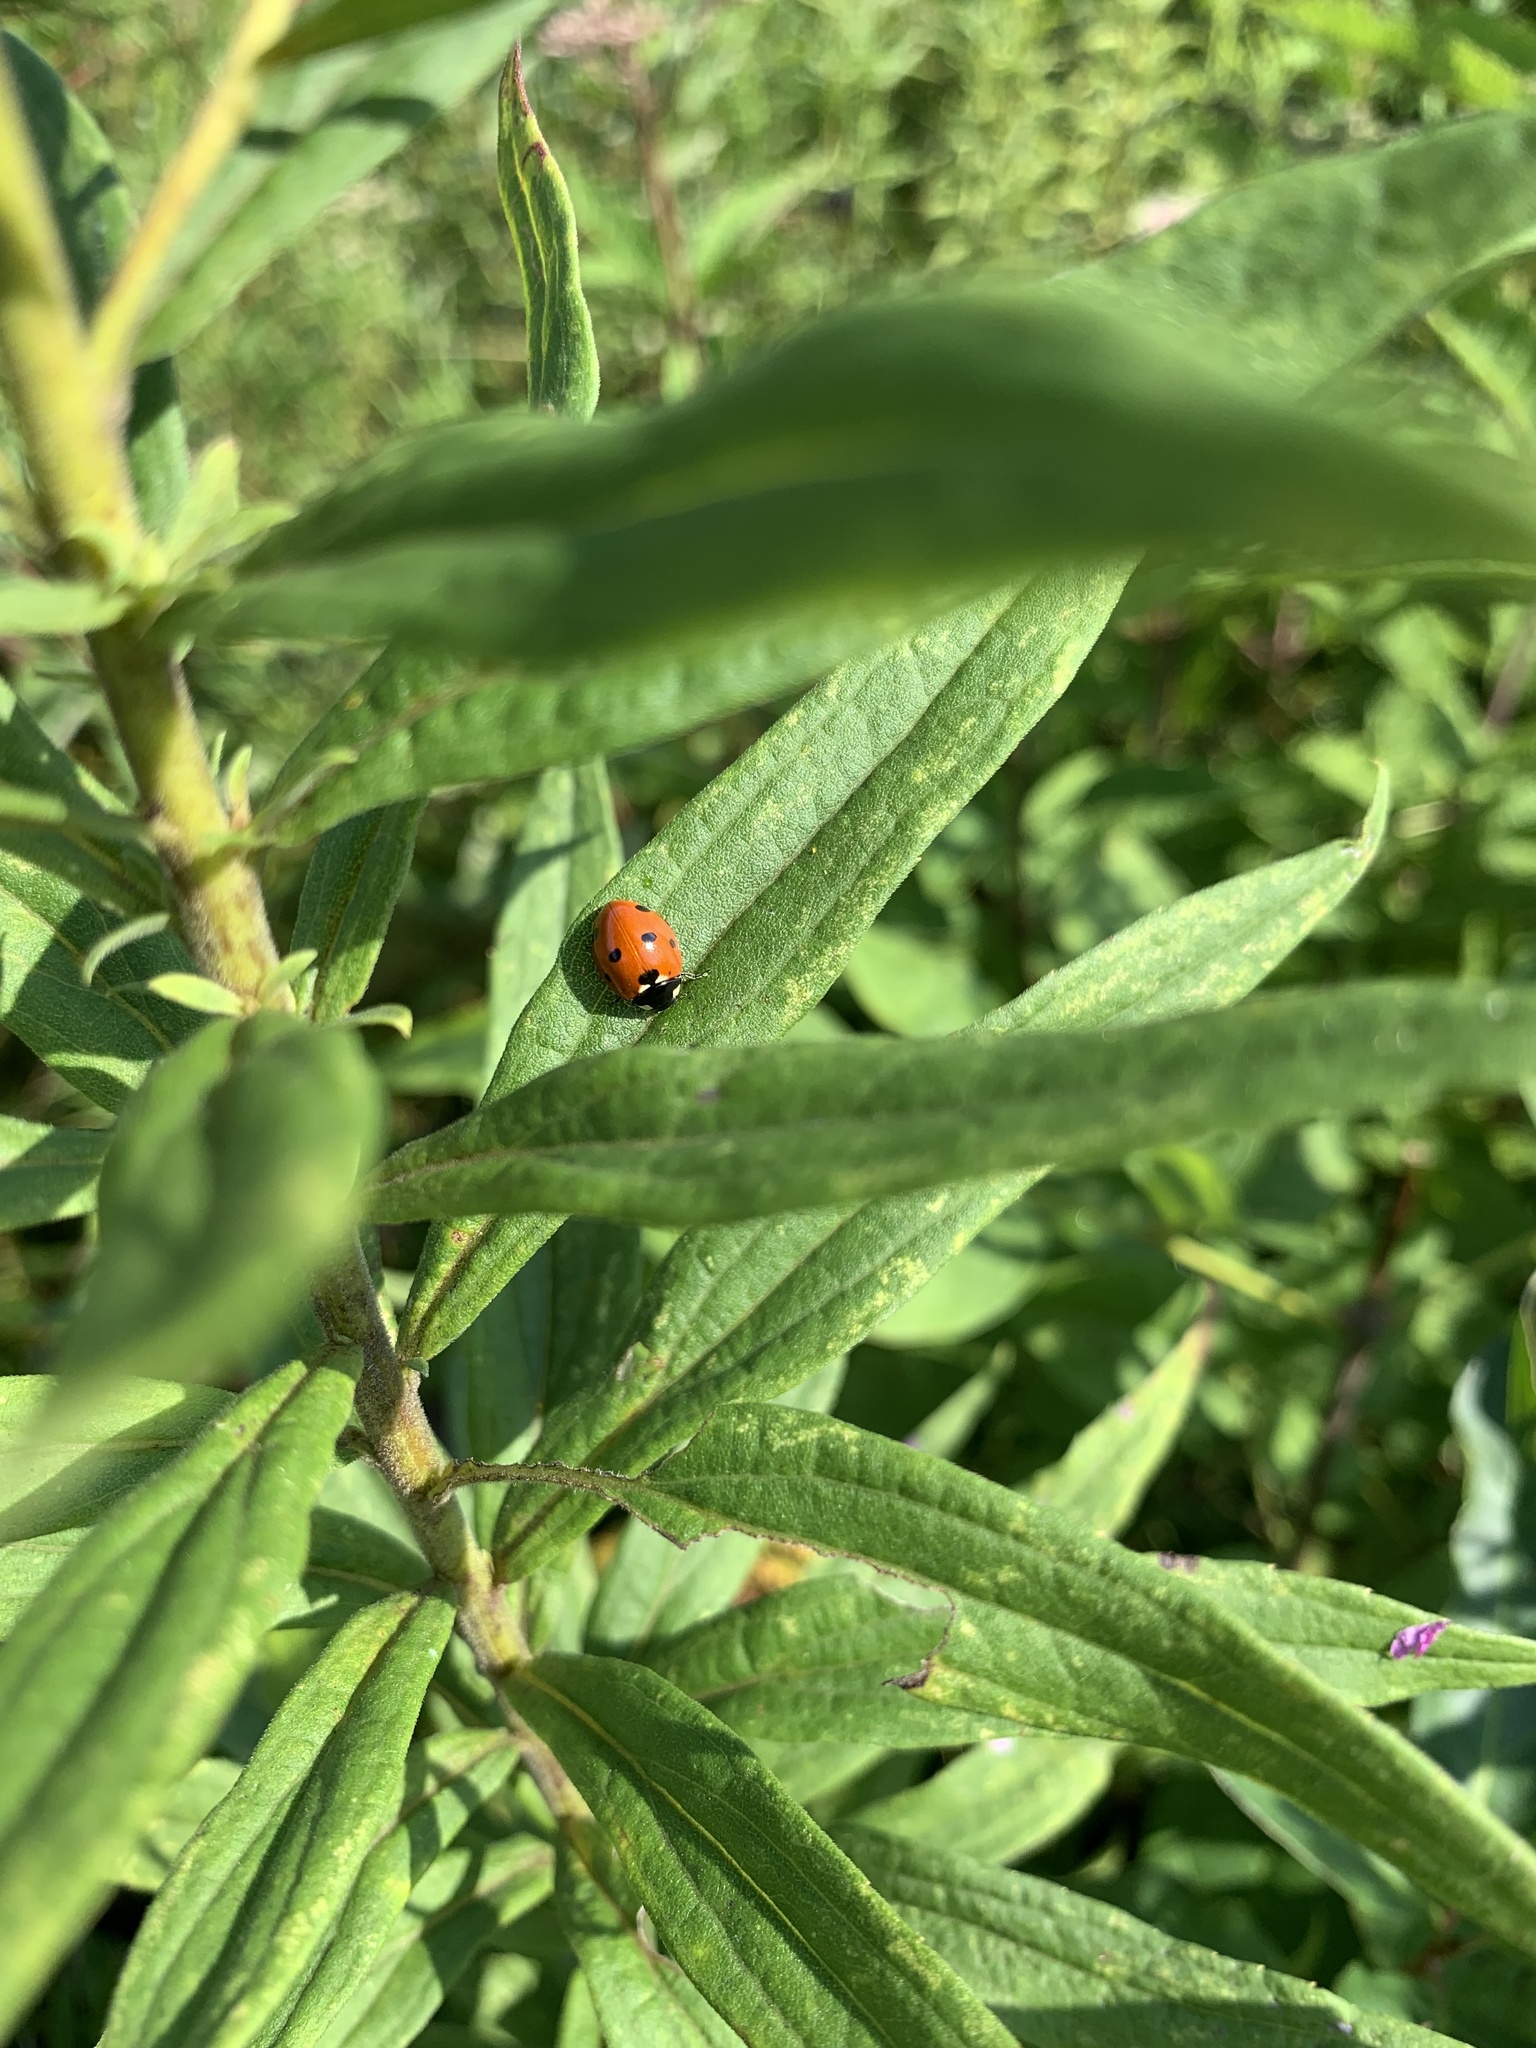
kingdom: Animalia
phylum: Arthropoda
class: Insecta
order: Coleoptera
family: Coccinellidae
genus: Coccinella
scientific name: Coccinella septempunctata
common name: Sevenspotted lady beetle
